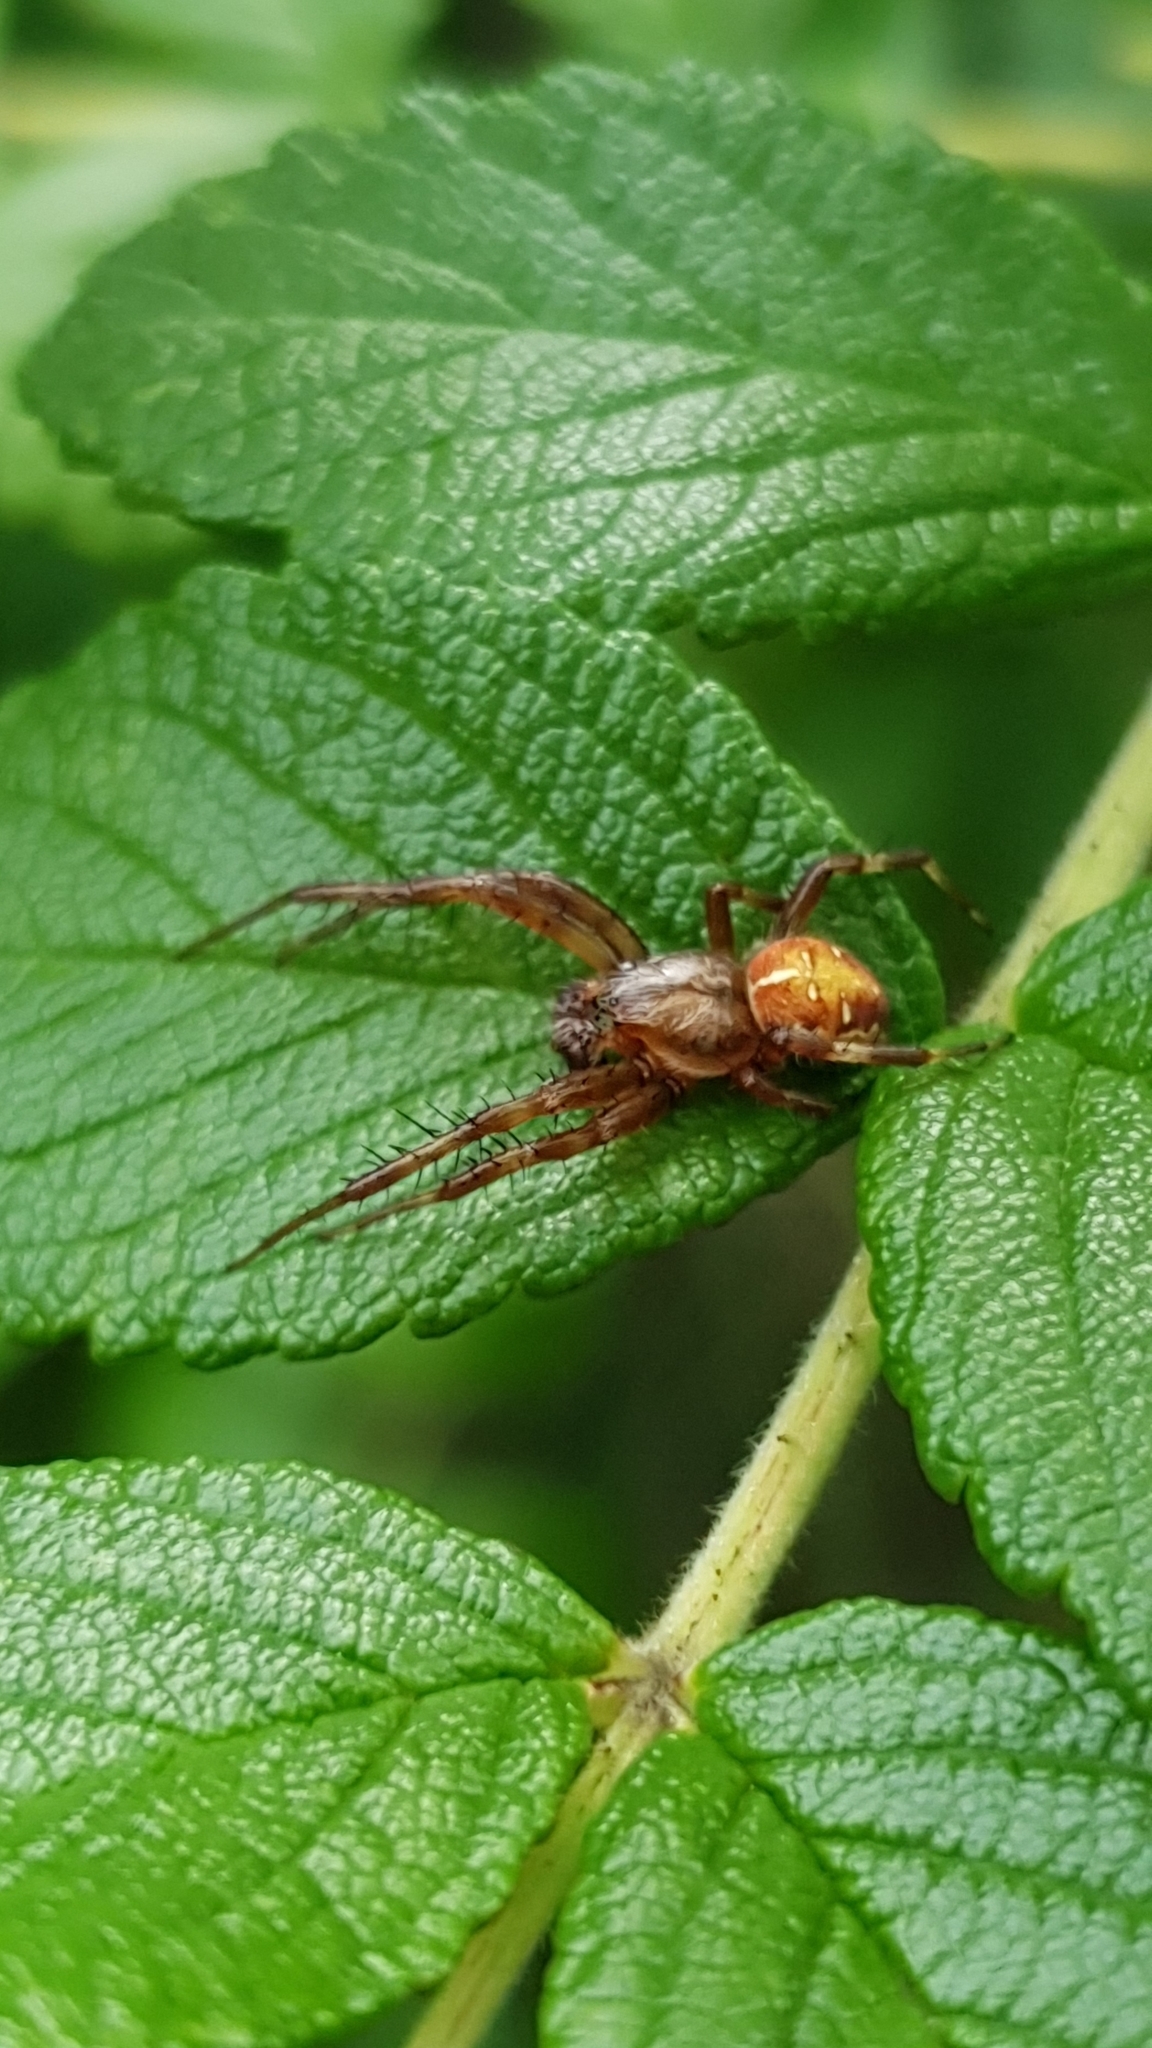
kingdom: Animalia
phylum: Arthropoda
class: Arachnida
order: Araneae
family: Araneidae
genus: Araneus
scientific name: Araneus quadratus
